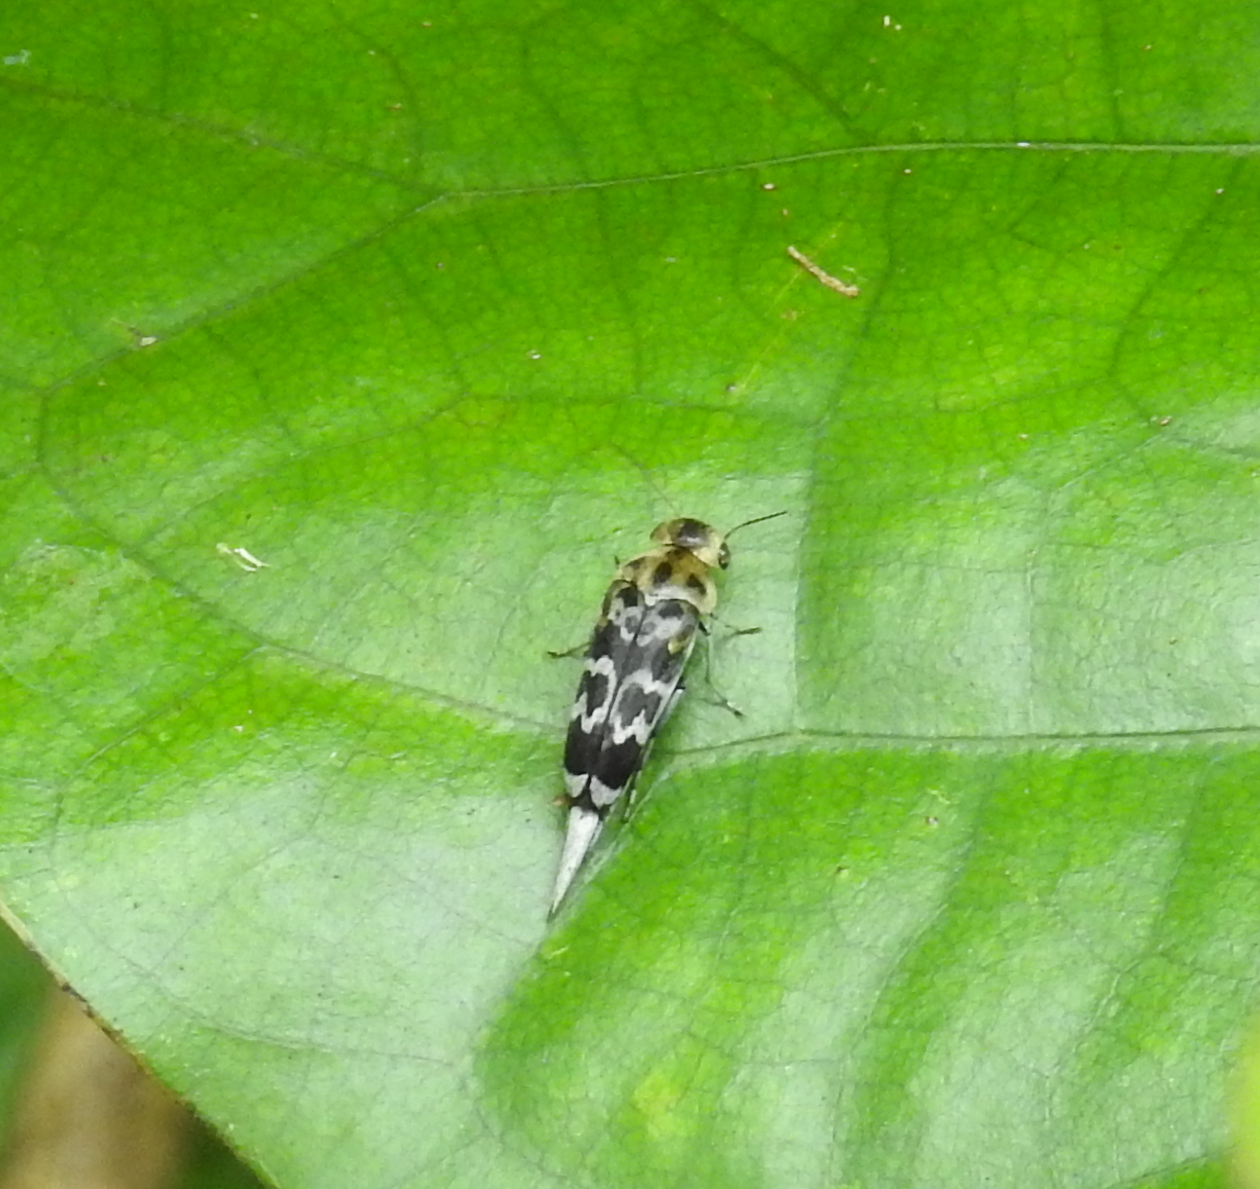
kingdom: Animalia
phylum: Arthropoda
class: Insecta
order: Coleoptera
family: Mordellidae
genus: Glipa
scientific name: Glipa
